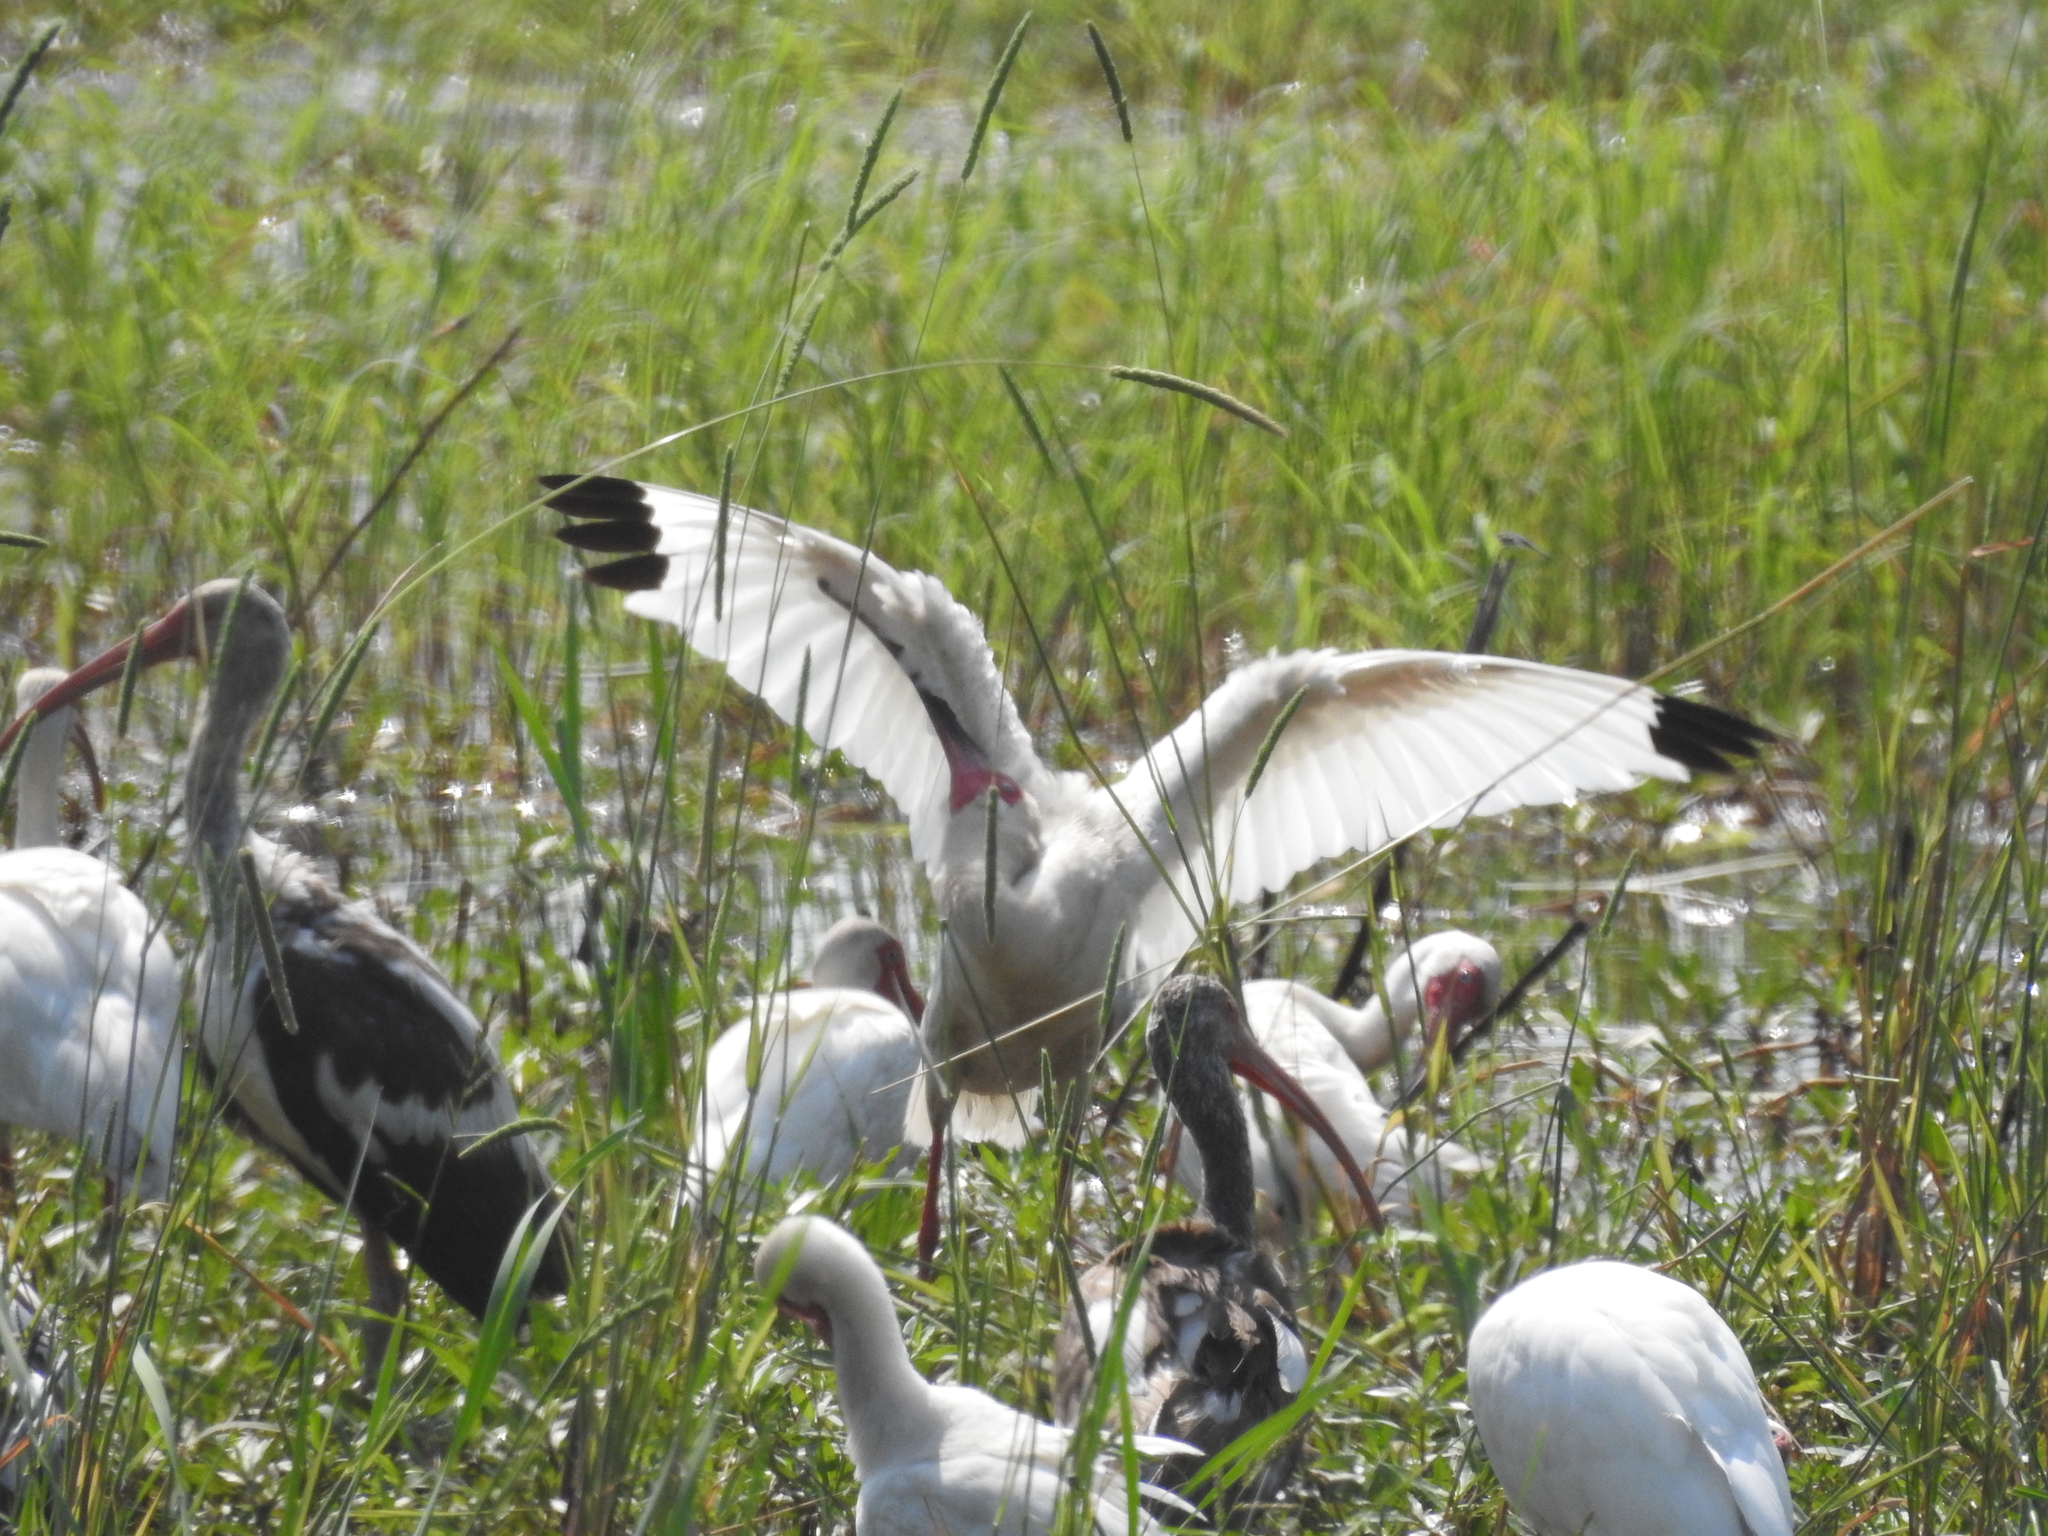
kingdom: Animalia
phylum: Chordata
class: Aves
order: Pelecaniformes
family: Threskiornithidae
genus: Eudocimus
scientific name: Eudocimus albus
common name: White ibis
